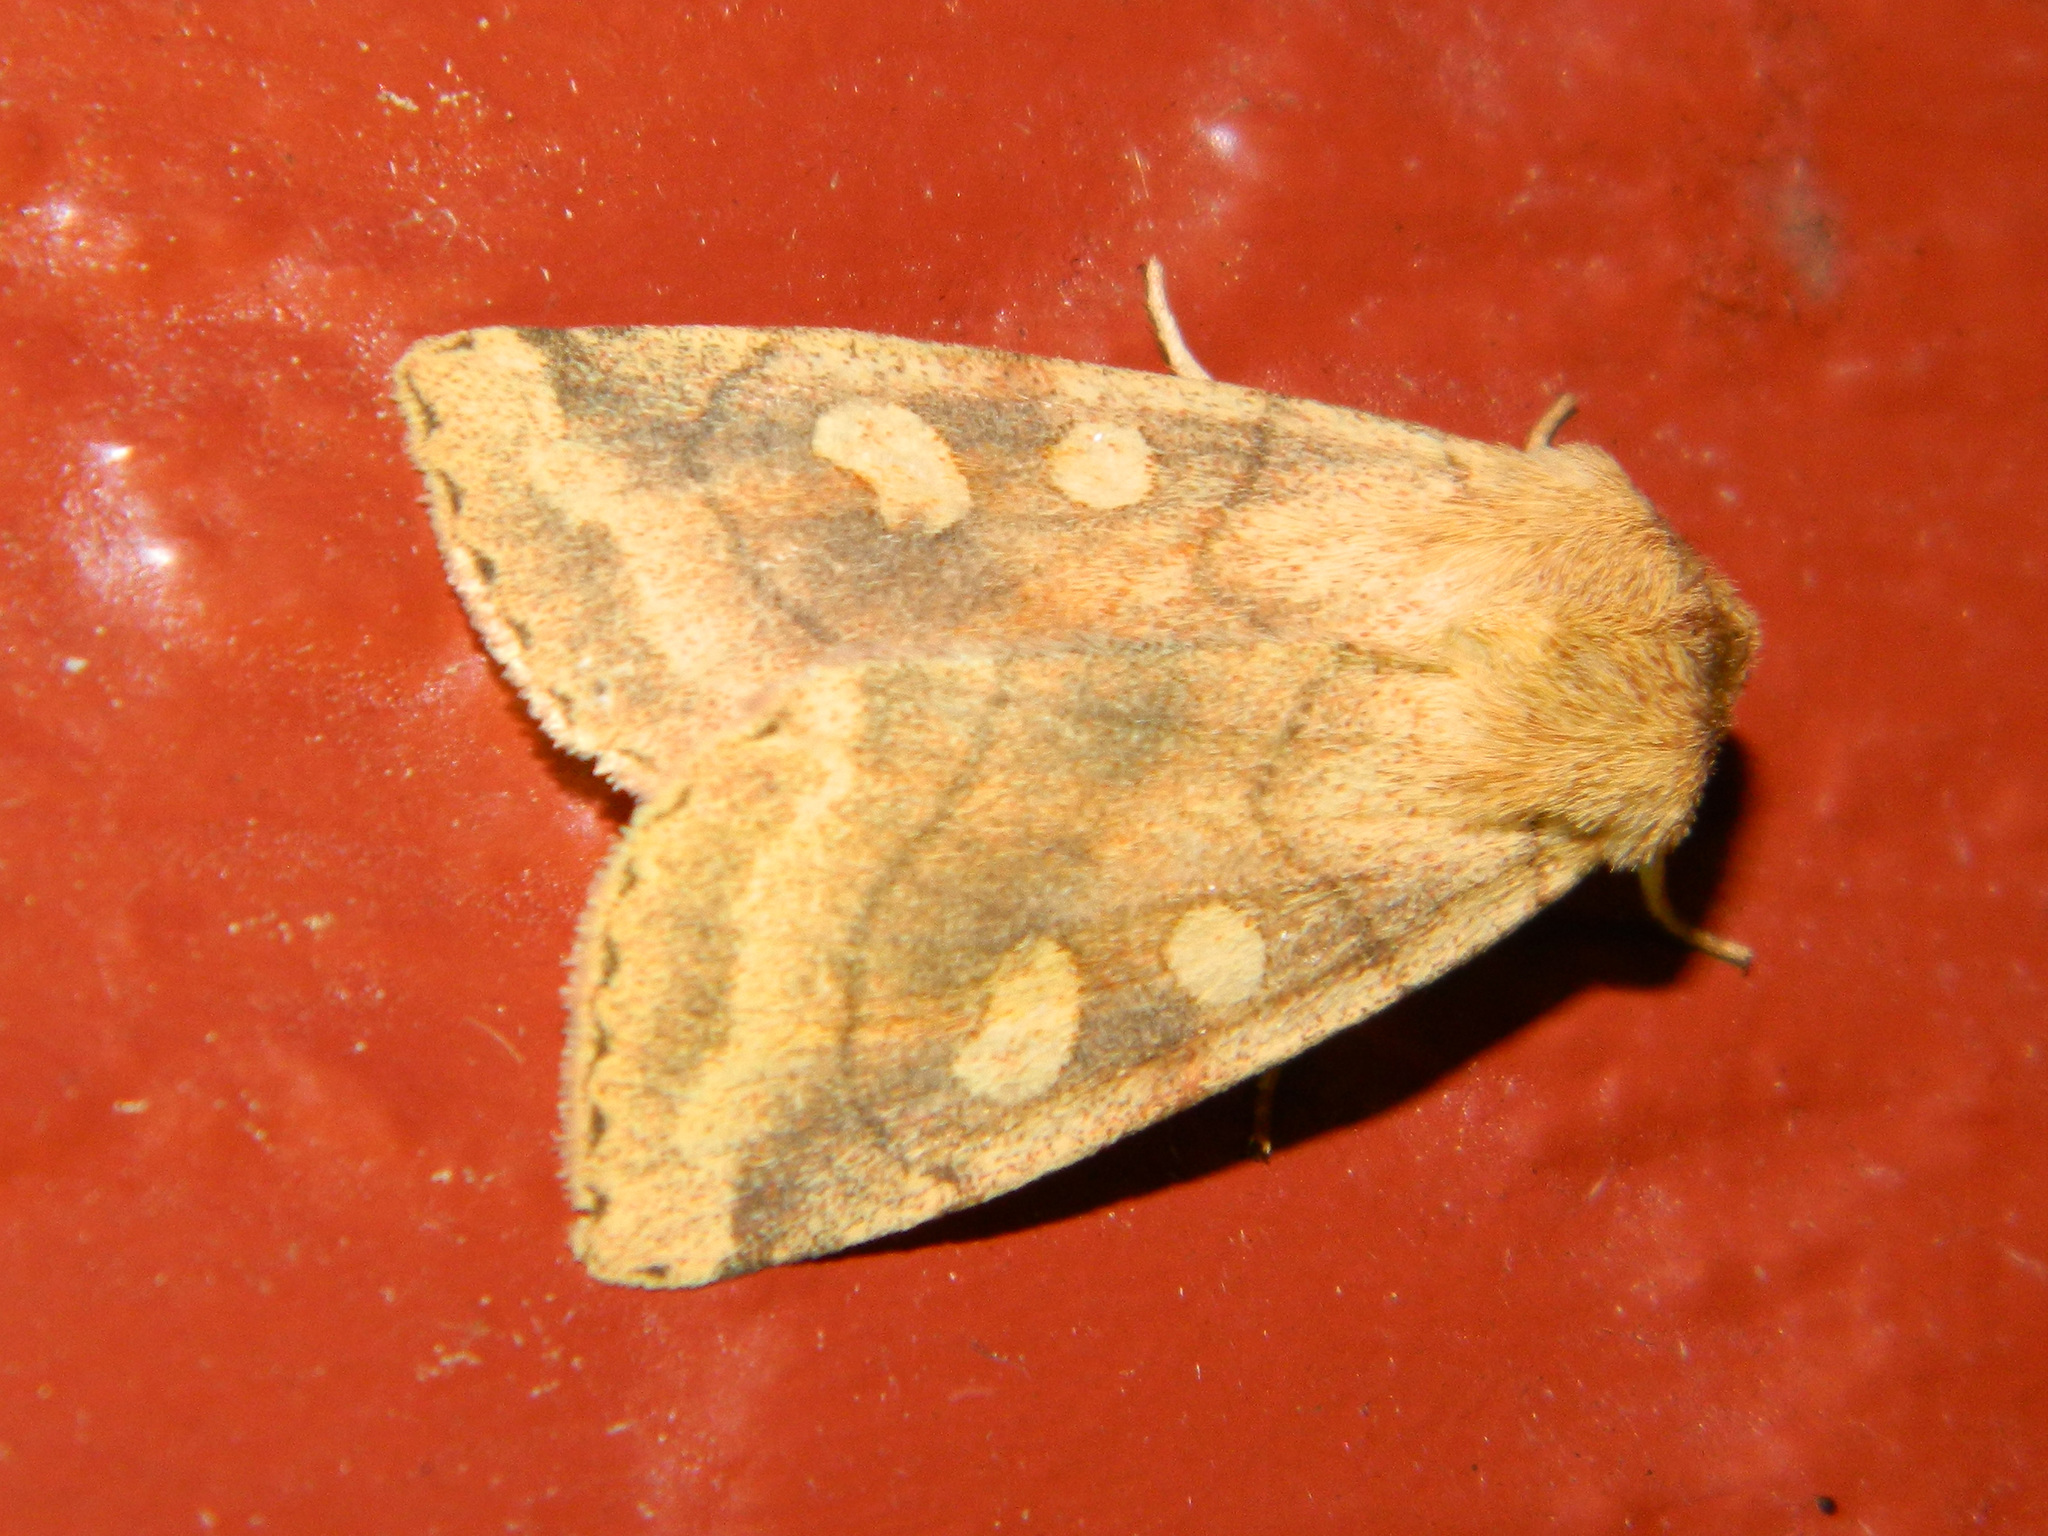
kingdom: Animalia
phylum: Arthropoda
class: Insecta
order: Lepidoptera
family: Noctuidae
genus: Enargia
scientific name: Enargia decolor
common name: Aspen twoleaf tier moth
